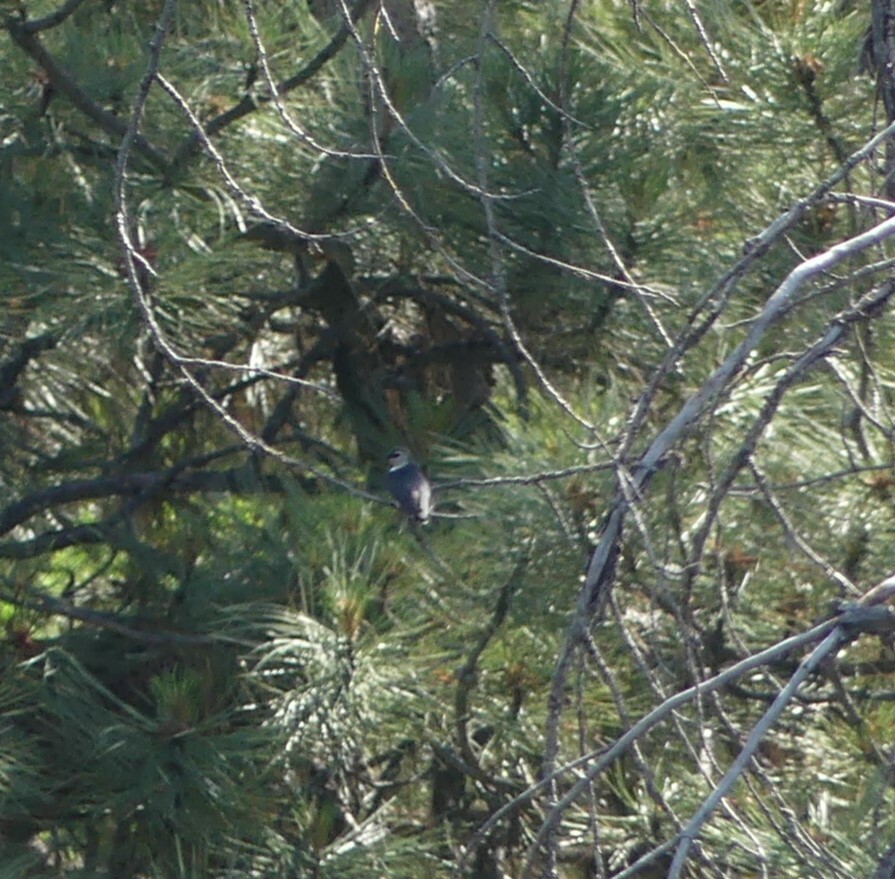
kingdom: Animalia
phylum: Chordata
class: Aves
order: Passeriformes
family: Hirundinidae
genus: Tachycineta
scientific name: Tachycineta thalassina
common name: Violet-green swallow
